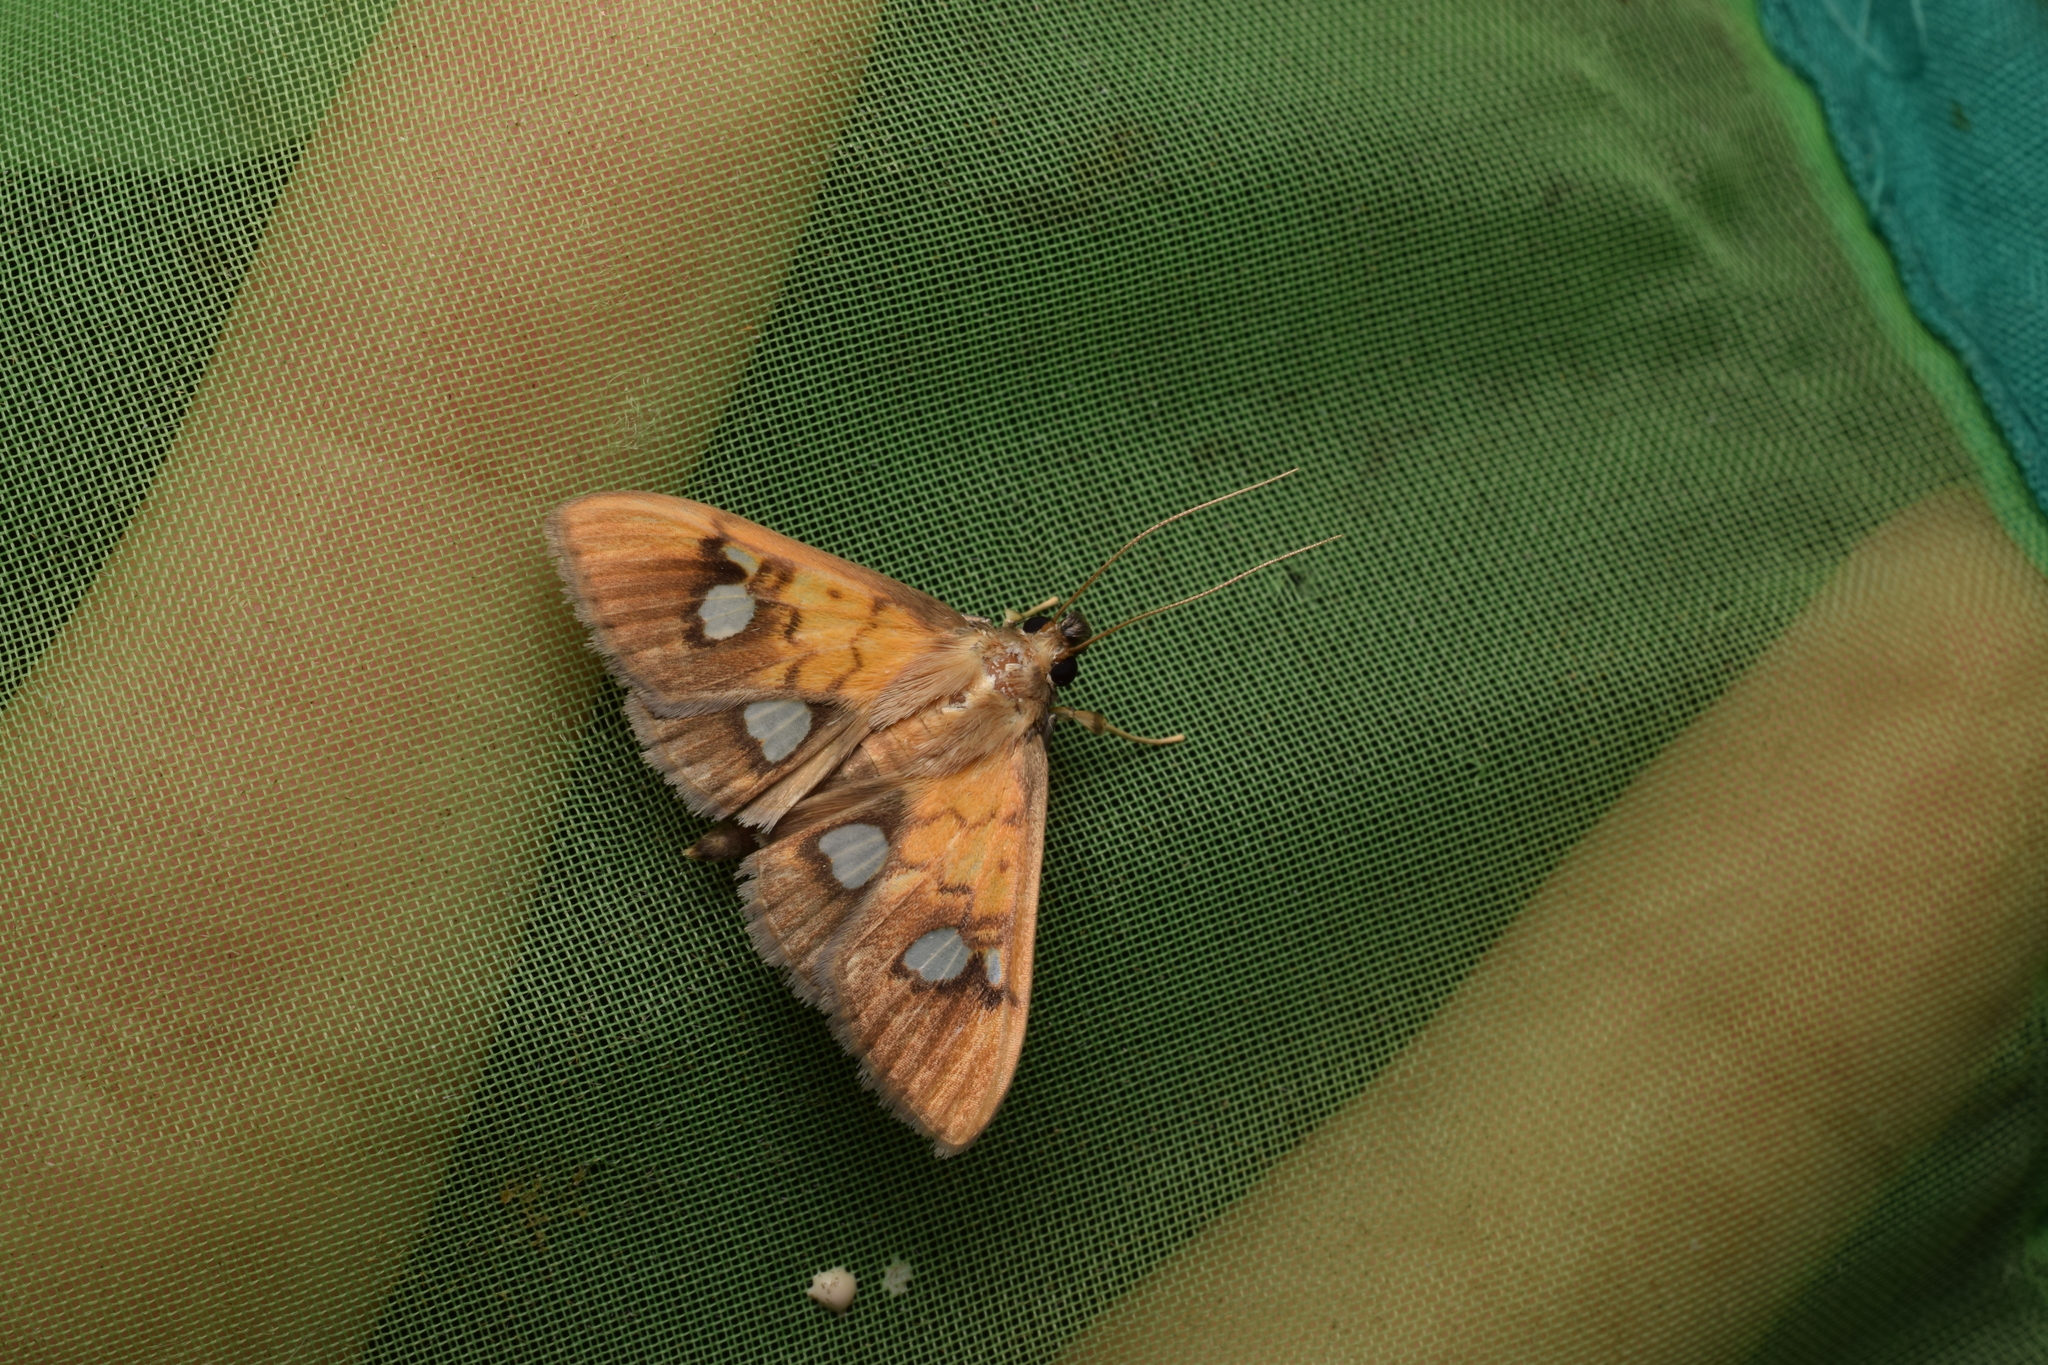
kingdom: Animalia
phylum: Arthropoda
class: Insecta
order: Lepidoptera
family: Crambidae
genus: Nosophora
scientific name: Nosophora semitritalis
